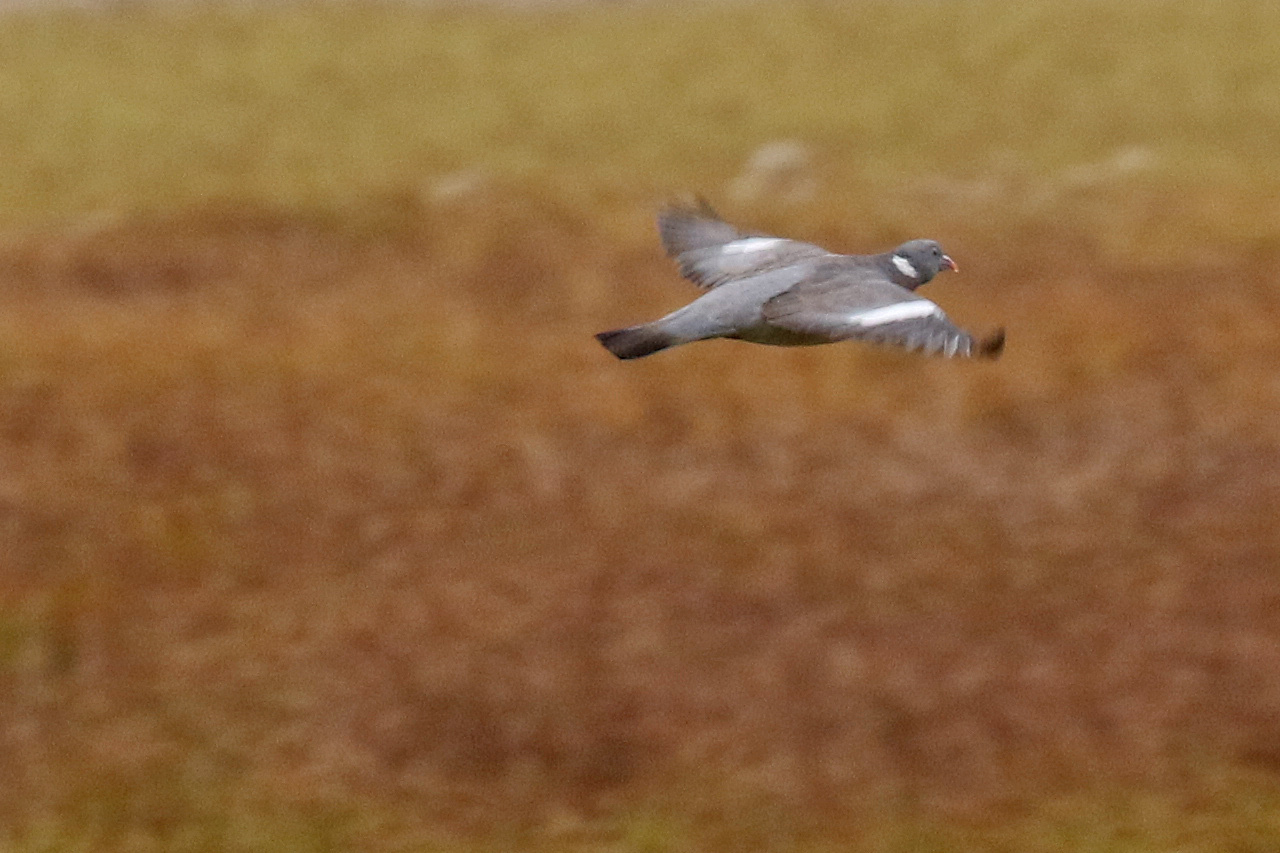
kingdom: Animalia
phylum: Chordata
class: Aves
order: Columbiformes
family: Columbidae
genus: Columba
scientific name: Columba palumbus
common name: Common wood pigeon
